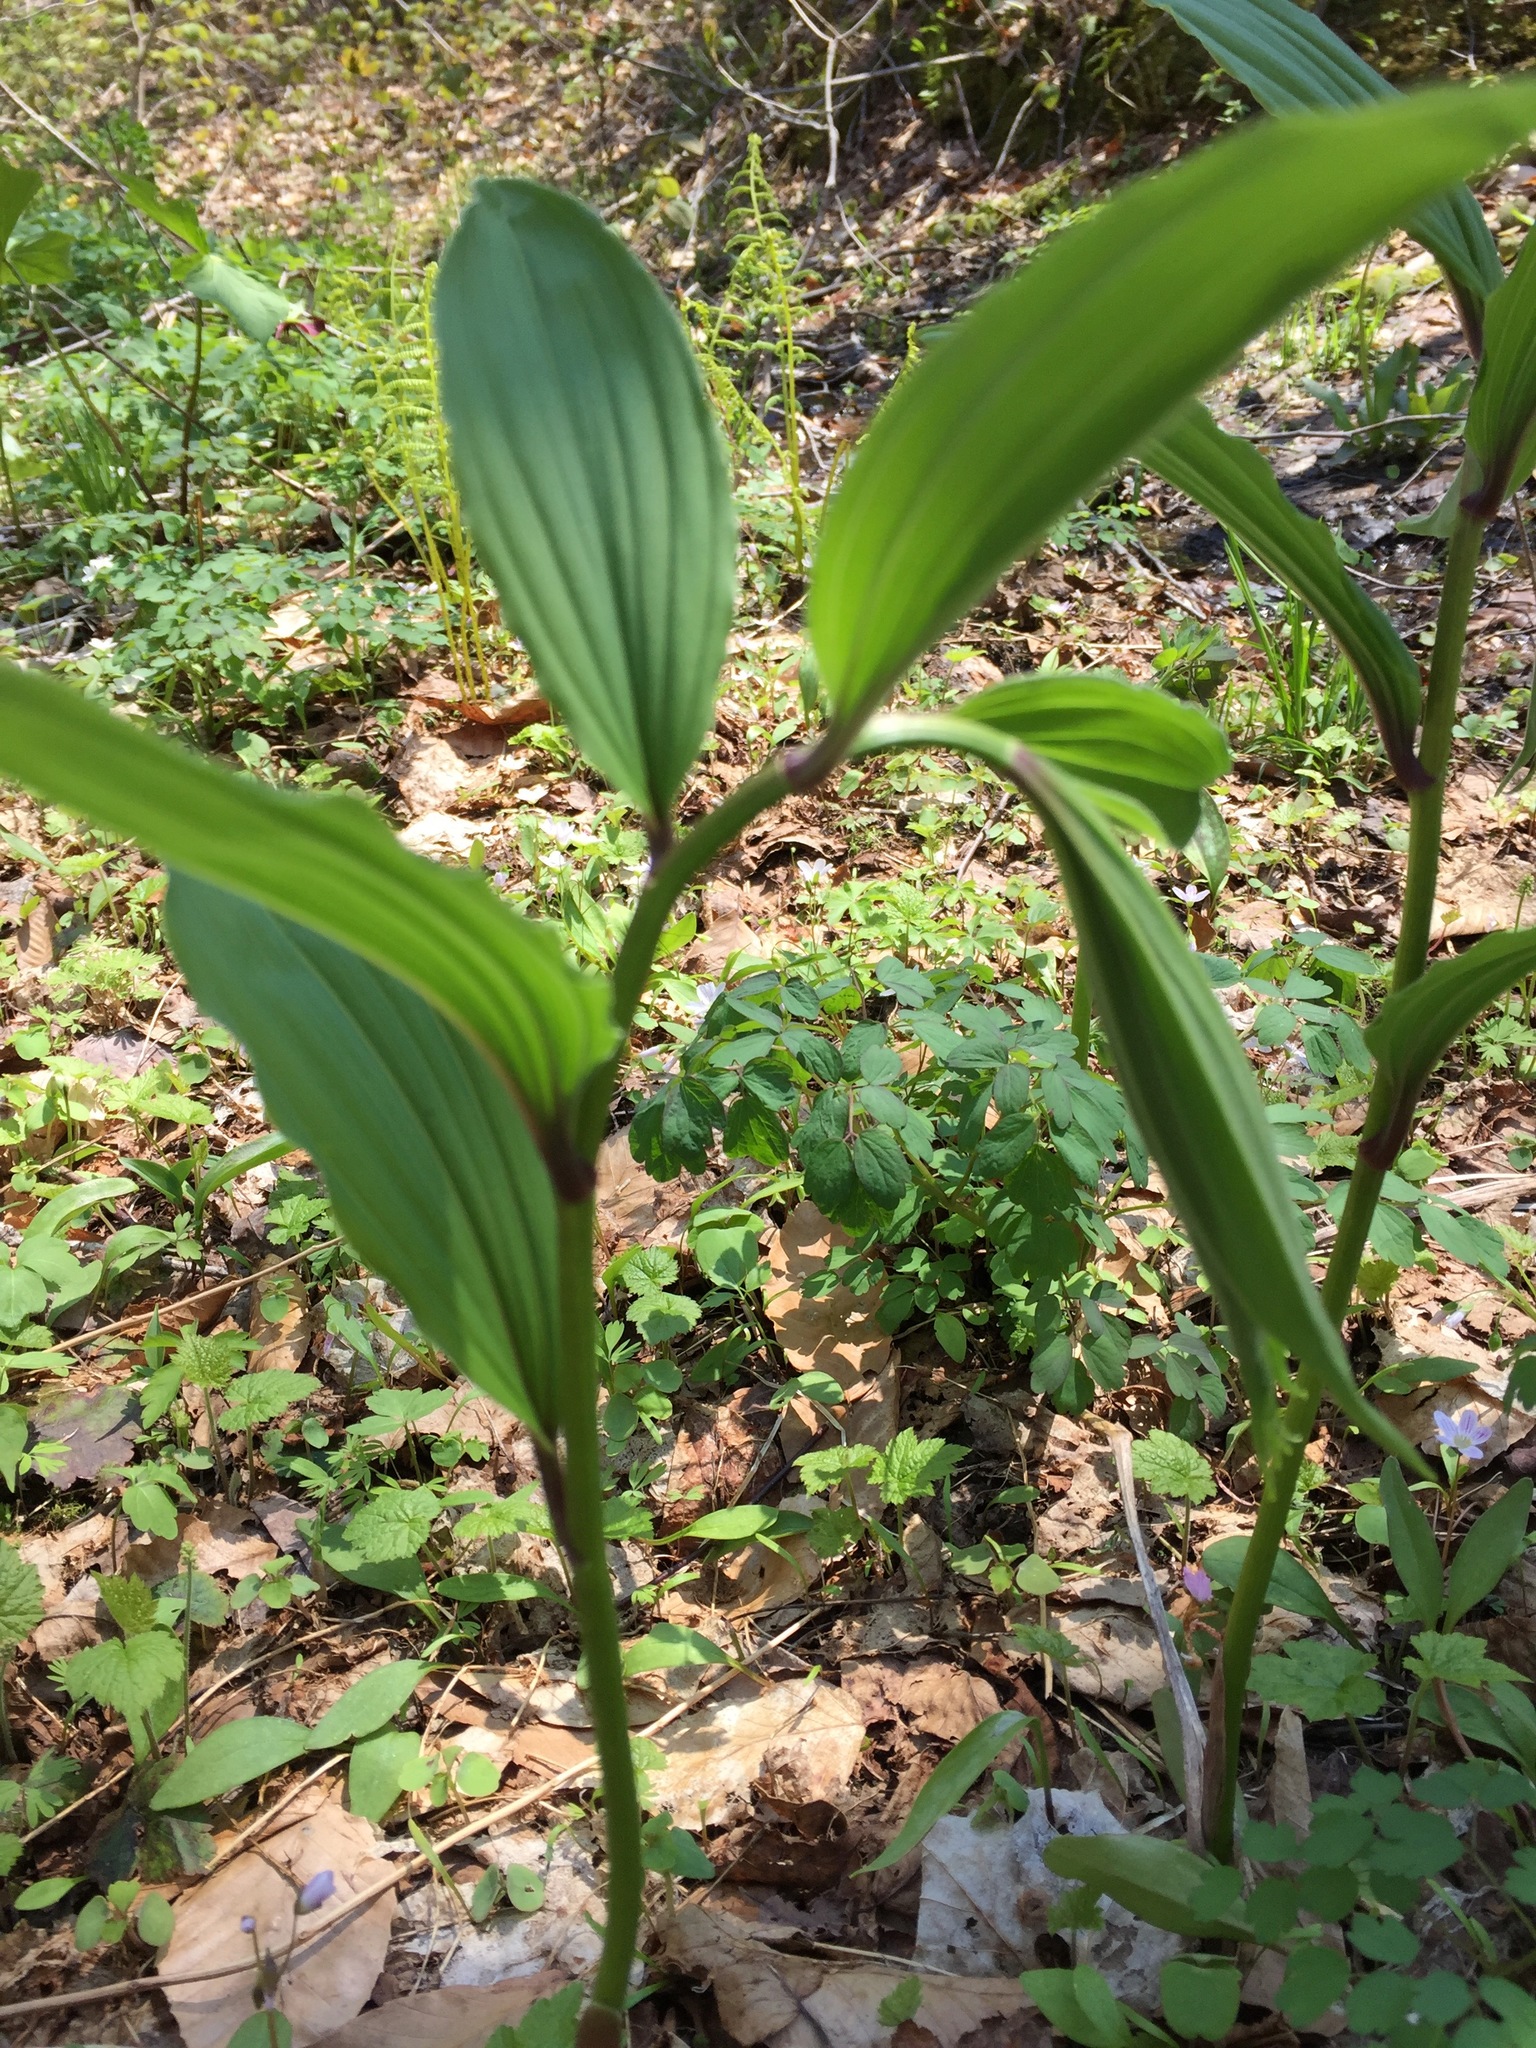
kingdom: Plantae
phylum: Tracheophyta
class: Liliopsida
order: Asparagales
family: Asparagaceae
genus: Maianthemum
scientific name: Maianthemum racemosum
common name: False spikenard
